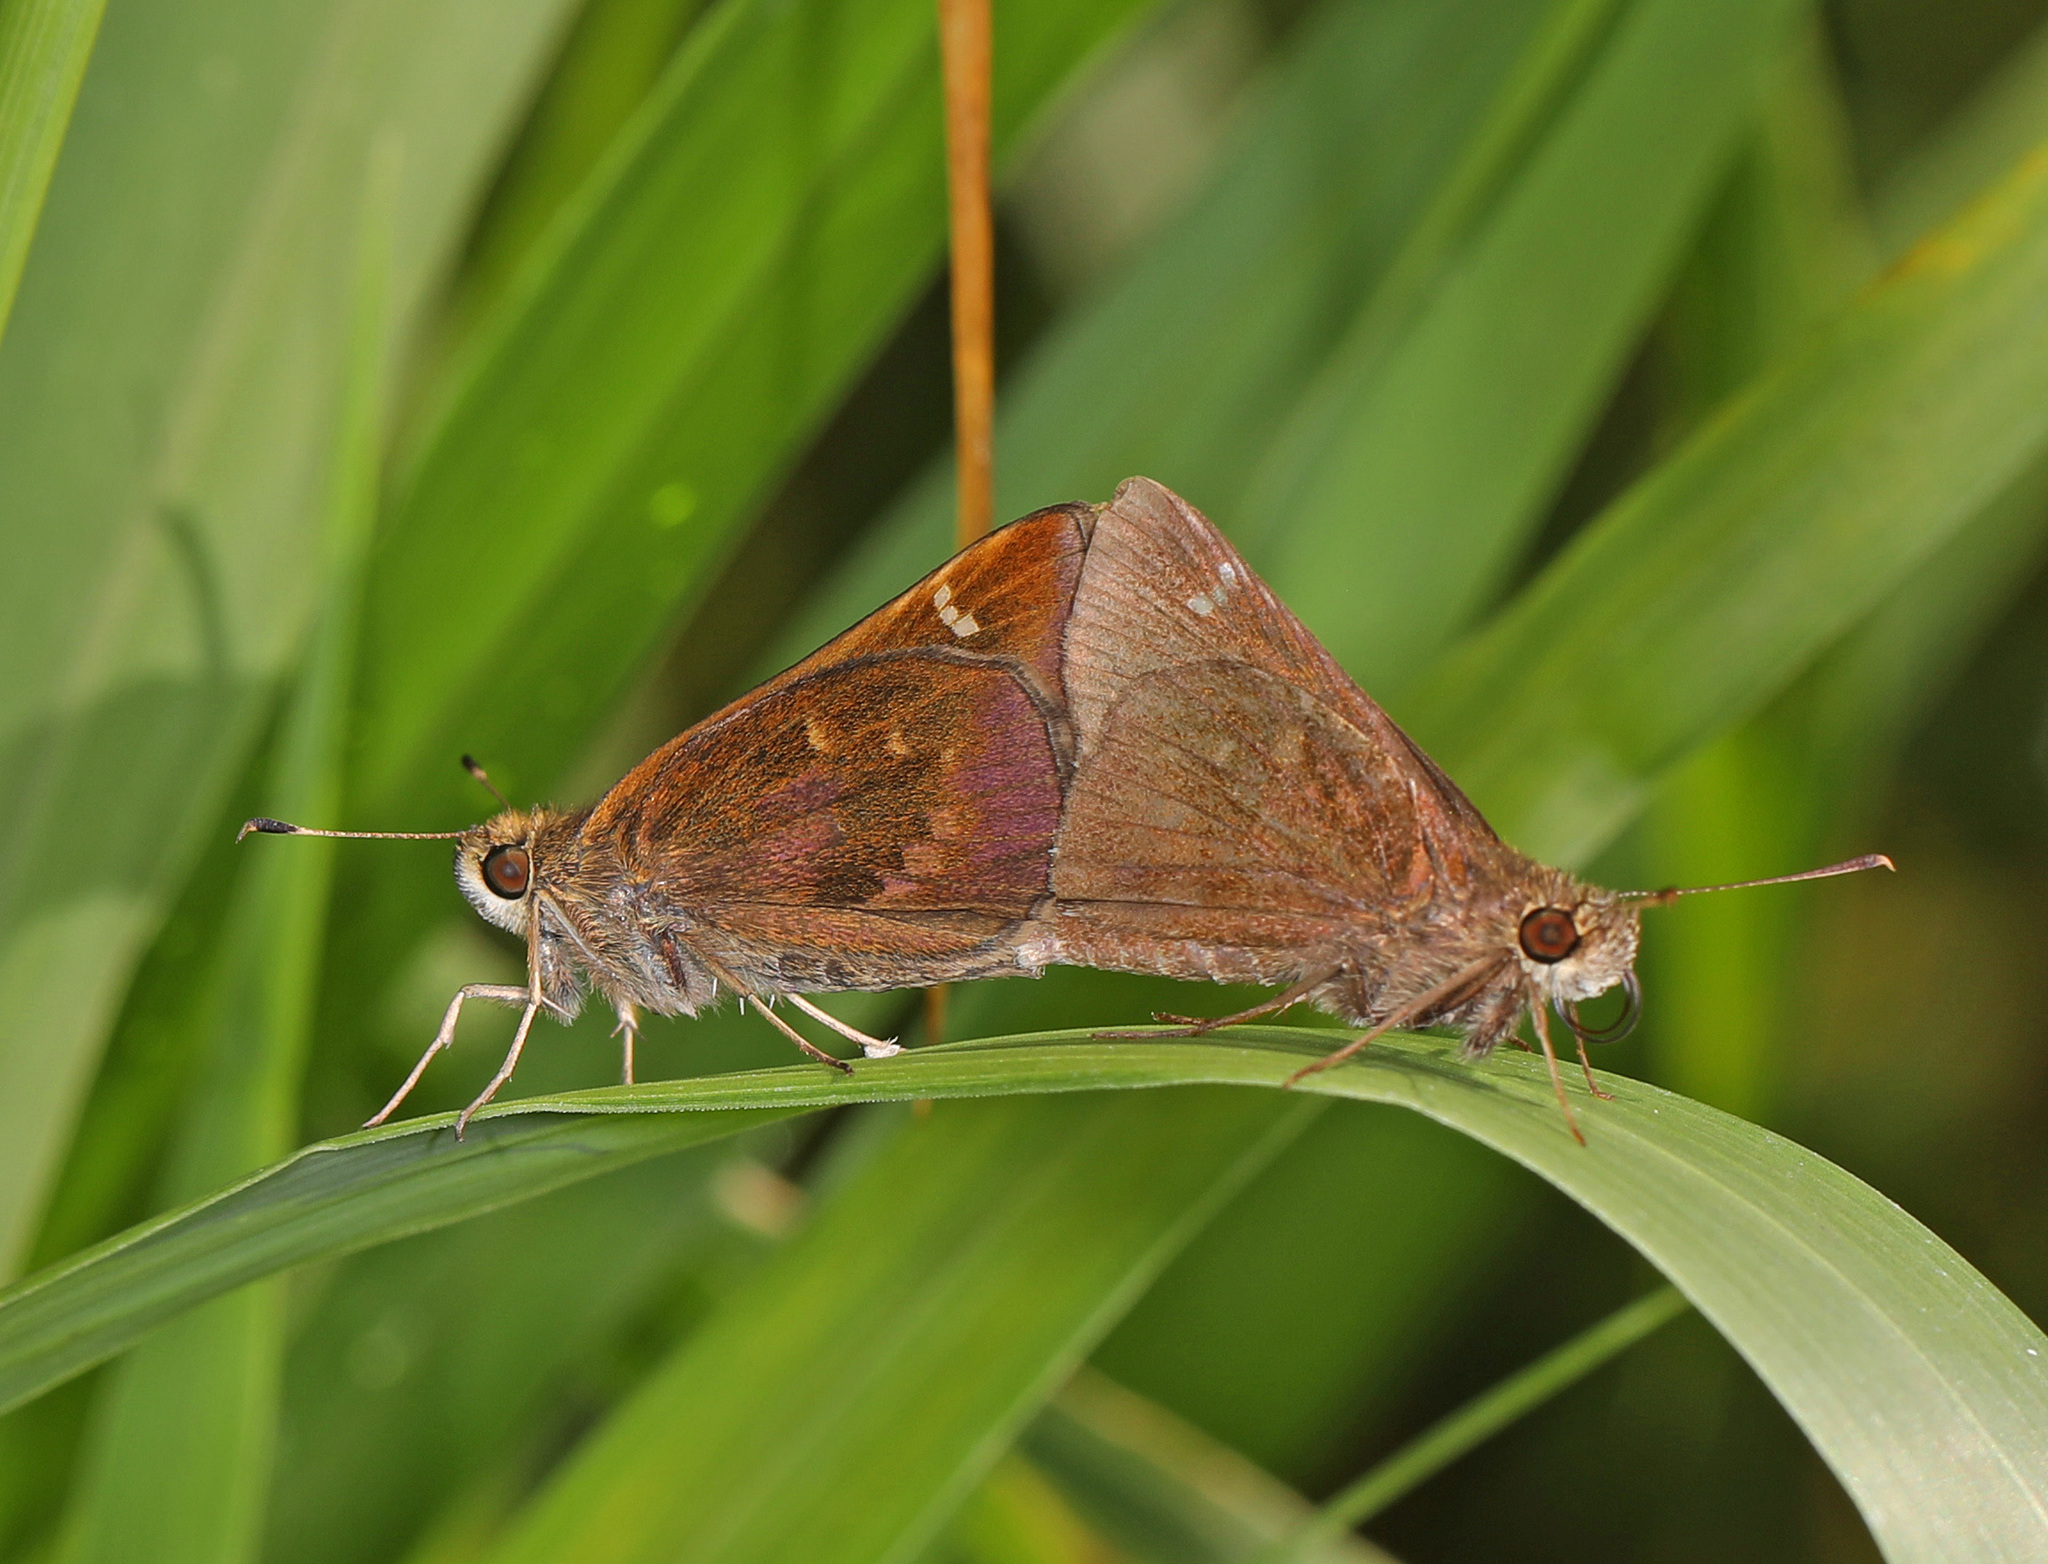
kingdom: Animalia
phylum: Arthropoda
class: Insecta
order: Lepidoptera
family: Hesperiidae
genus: Lerema
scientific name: Lerema accius
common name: Clouded skipper
